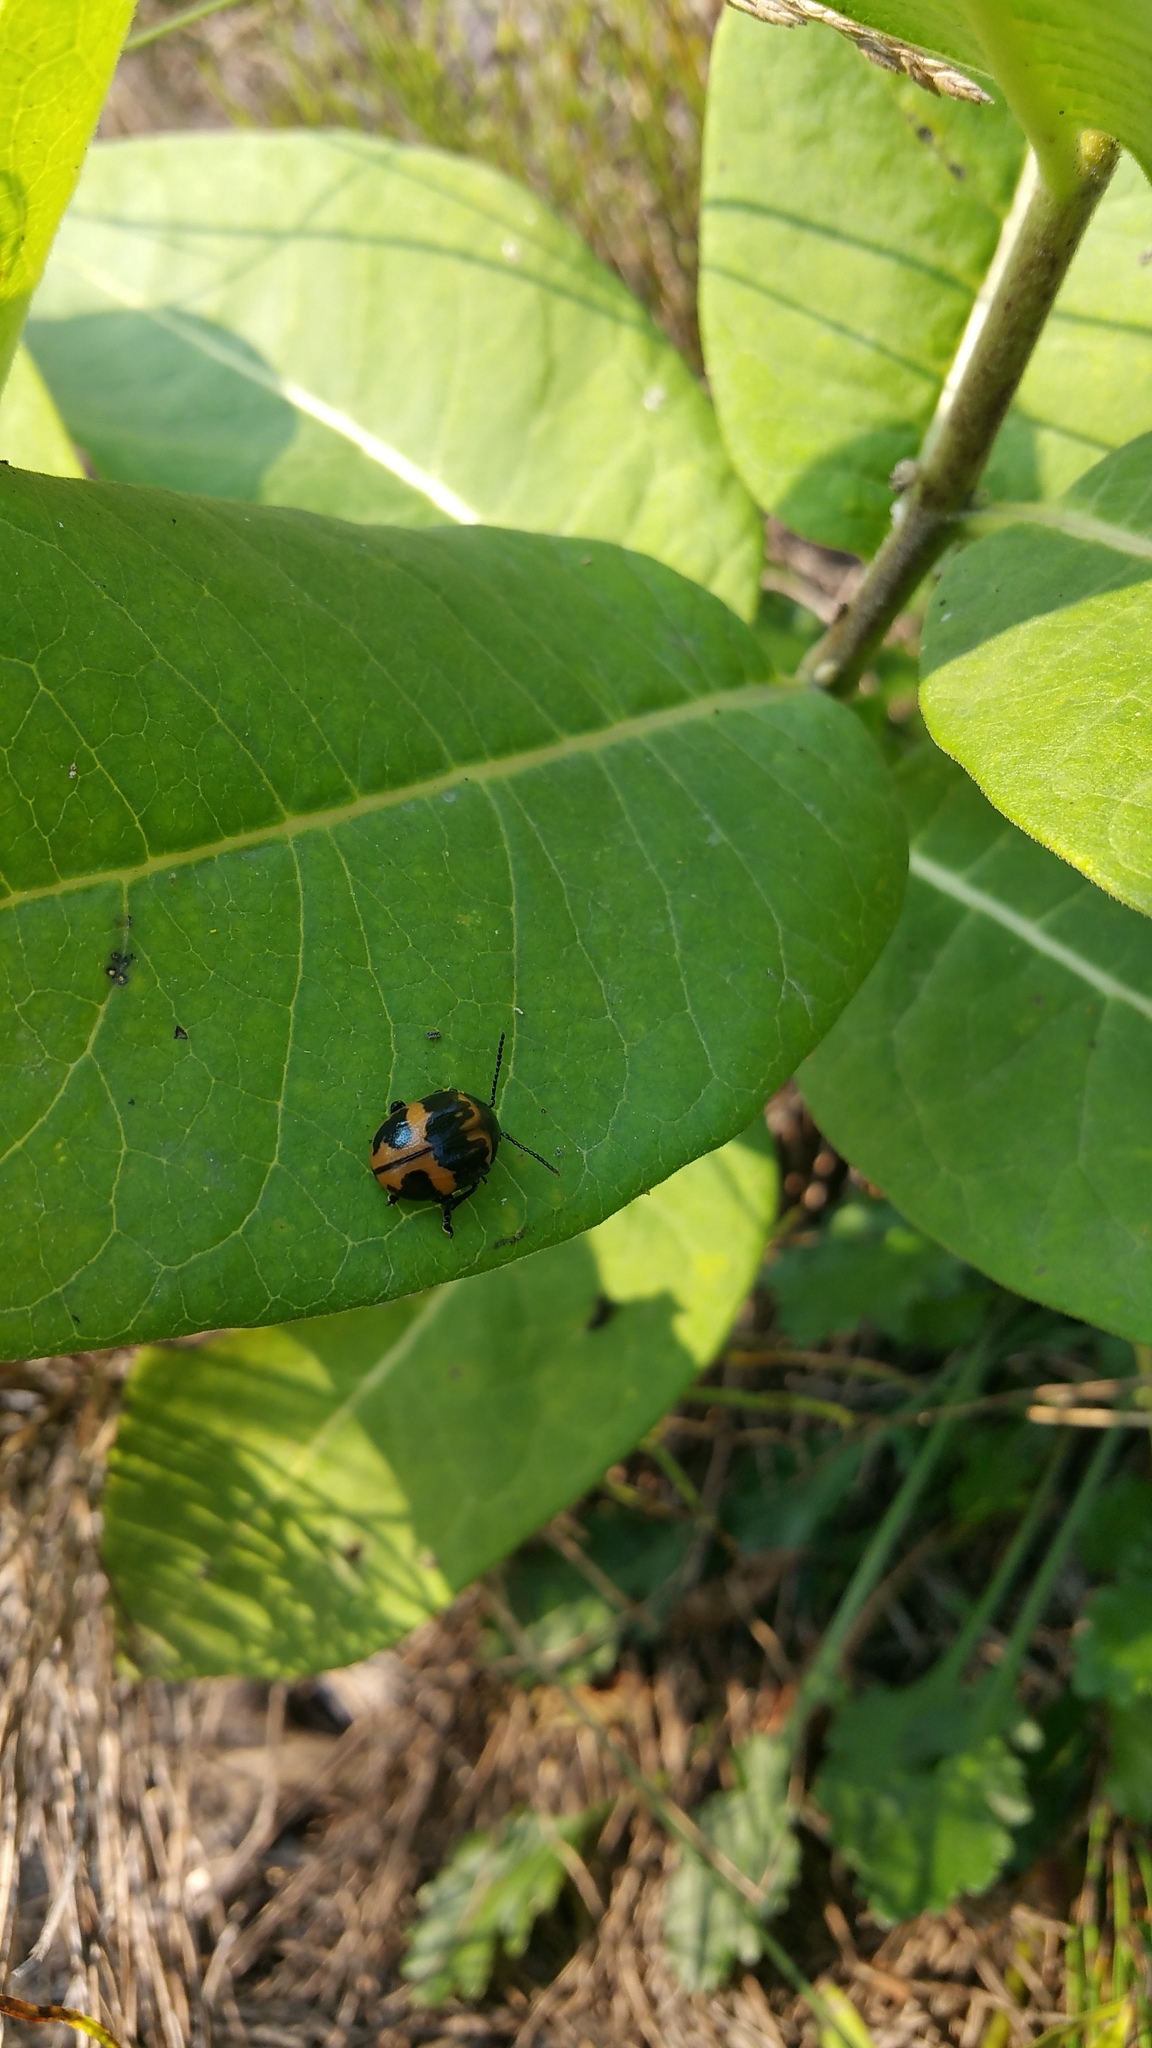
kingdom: Animalia
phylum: Arthropoda
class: Insecta
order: Coleoptera
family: Chrysomelidae
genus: Labidomera
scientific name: Labidomera clivicollis
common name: Swamp milkweed leaf beetle
